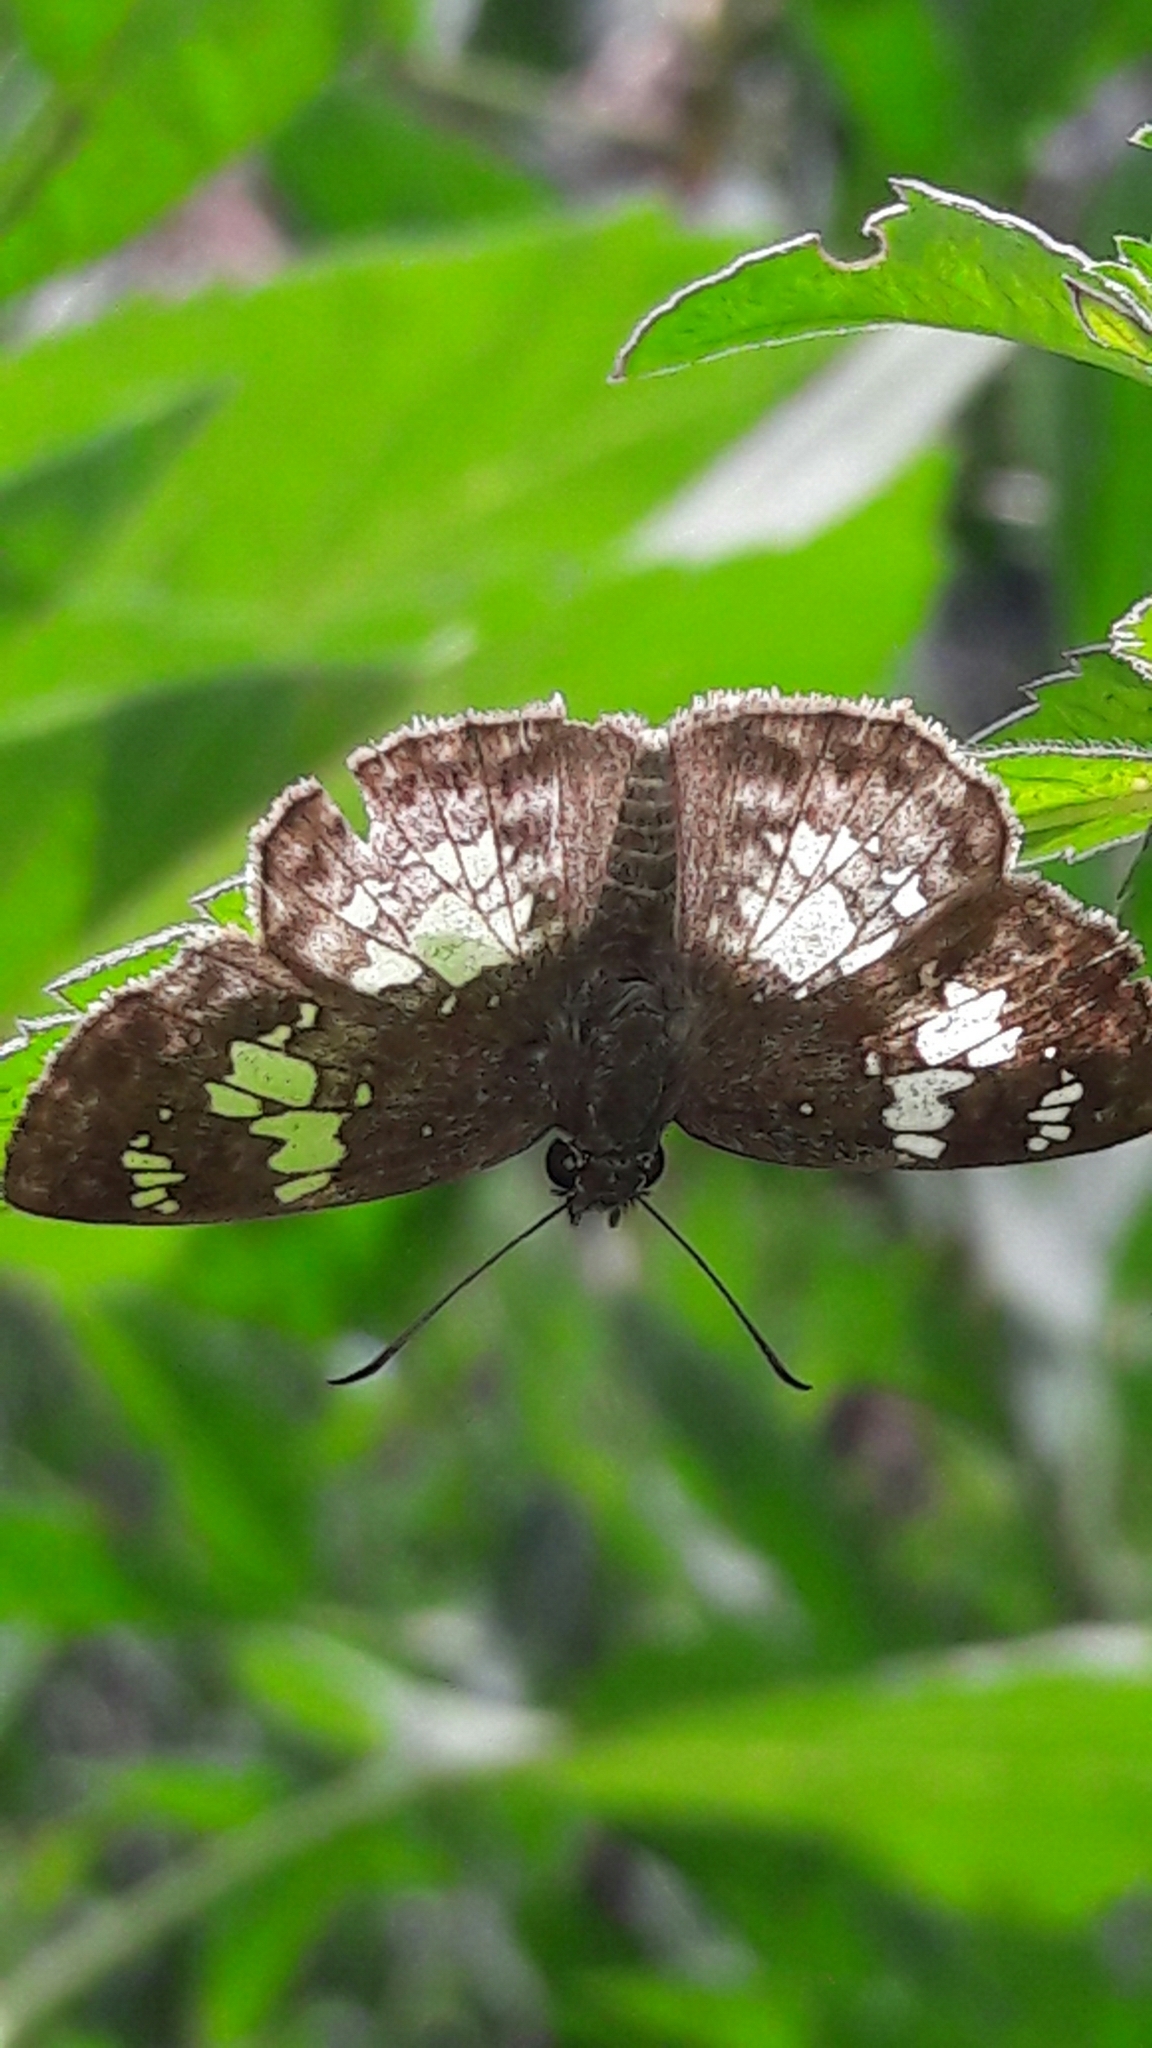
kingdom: Animalia
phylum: Arthropoda
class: Insecta
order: Lepidoptera
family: Hesperiidae
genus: Xenophanes
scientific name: Xenophanes tryxus
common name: Glassy-winged skipper
